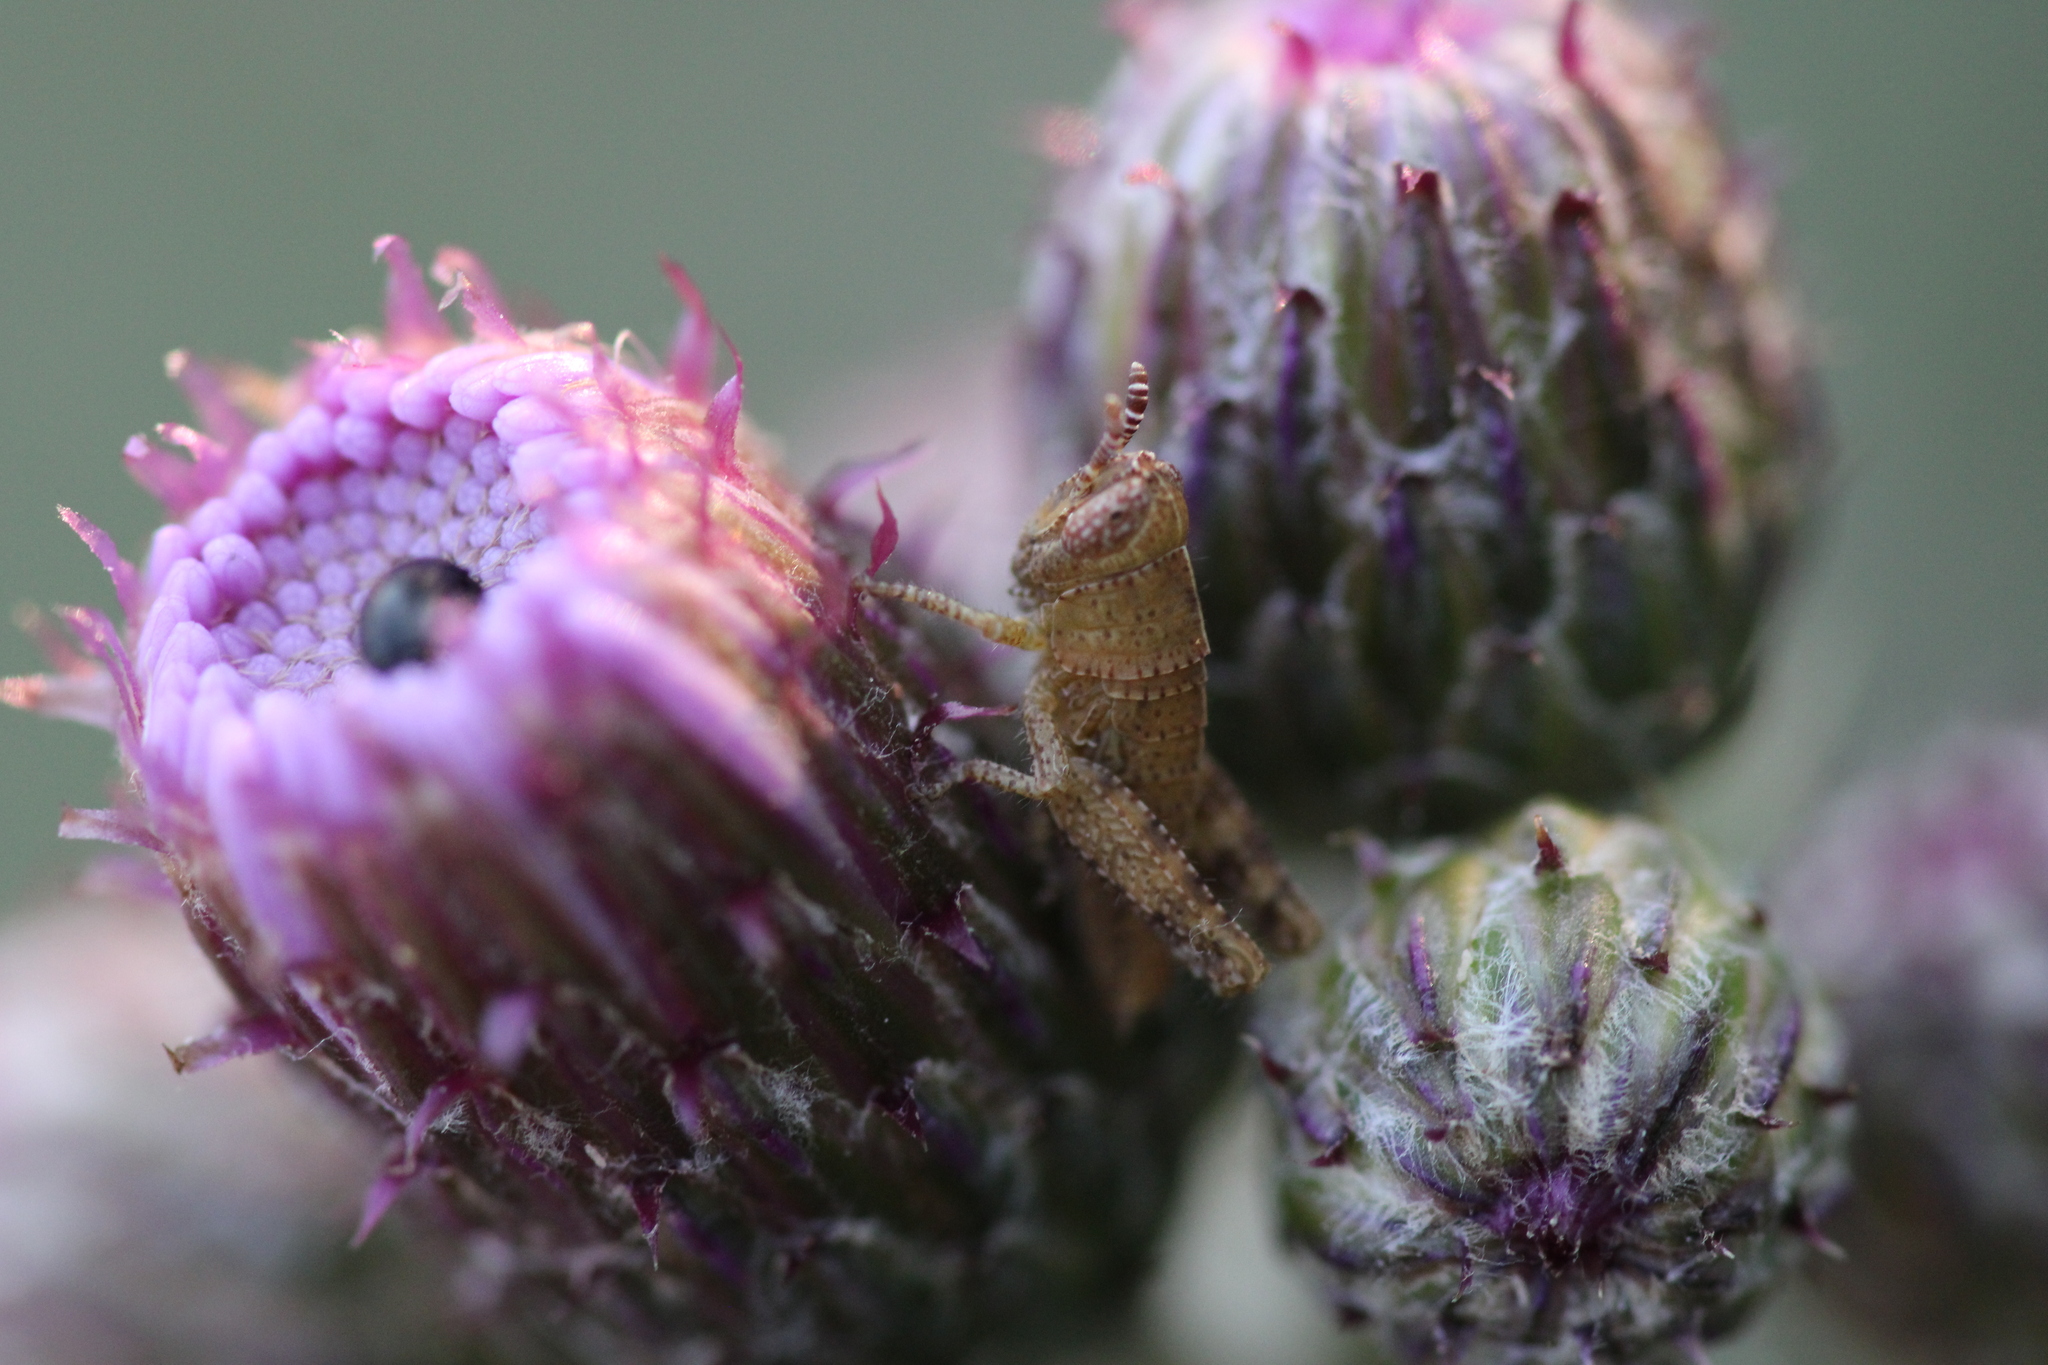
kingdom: Animalia
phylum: Arthropoda
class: Insecta
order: Orthoptera
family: Acrididae
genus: Pezotettix
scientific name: Pezotettix giornae
